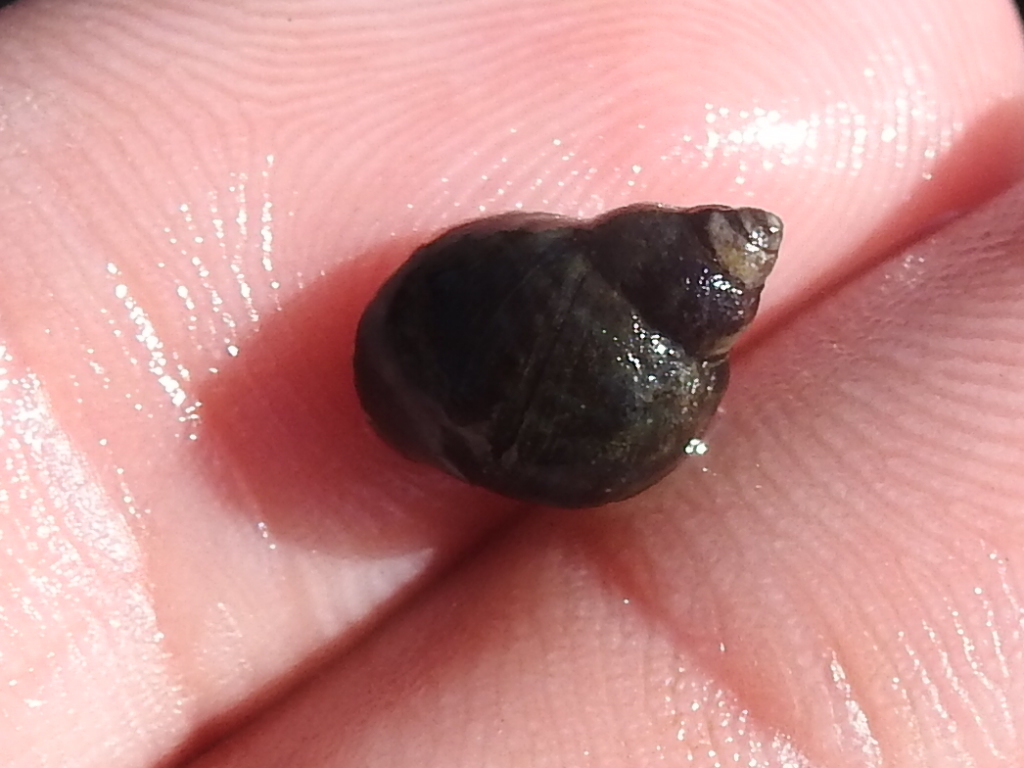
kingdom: Animalia
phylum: Mollusca
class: Gastropoda
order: Littorinimorpha
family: Littorinidae
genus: Littorina
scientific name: Littorina scutulata
